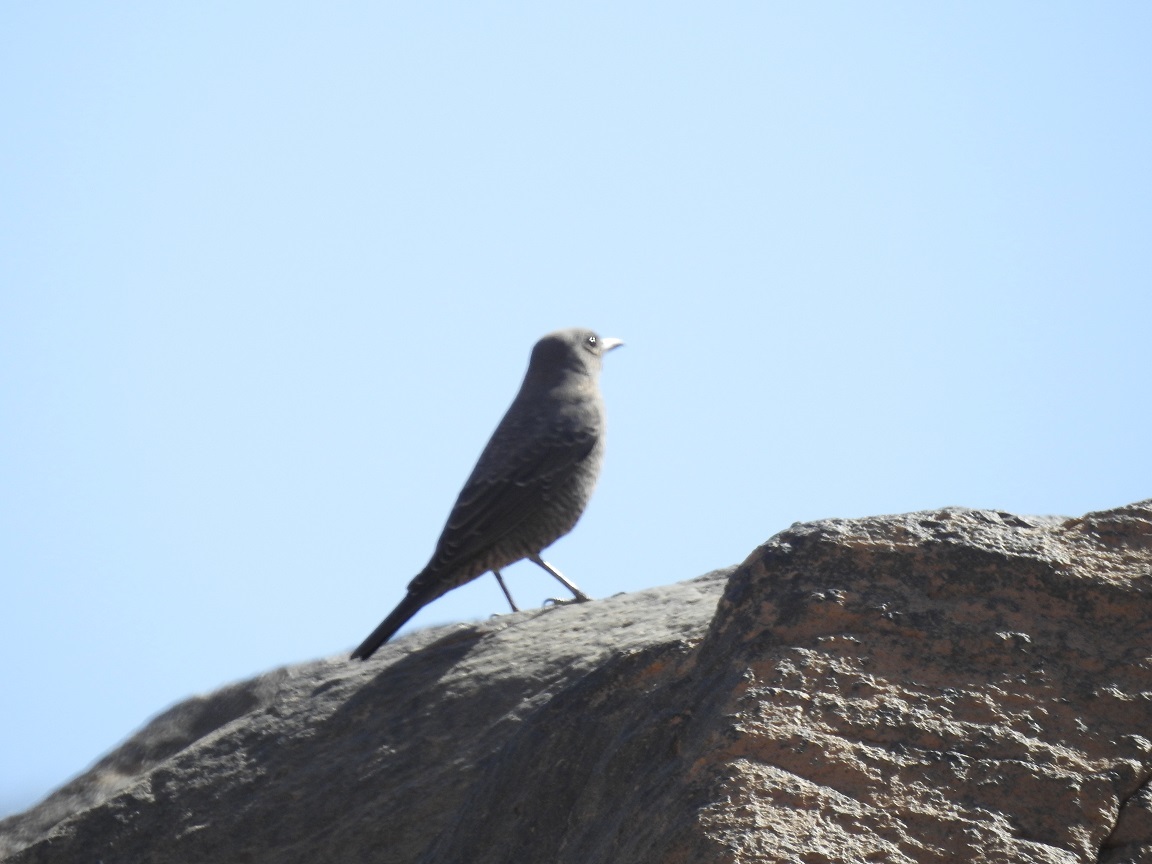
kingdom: Animalia
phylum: Chordata
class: Aves
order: Passeriformes
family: Muscicapidae
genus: Monticola
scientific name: Monticola solitarius
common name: Blue rock thrush
